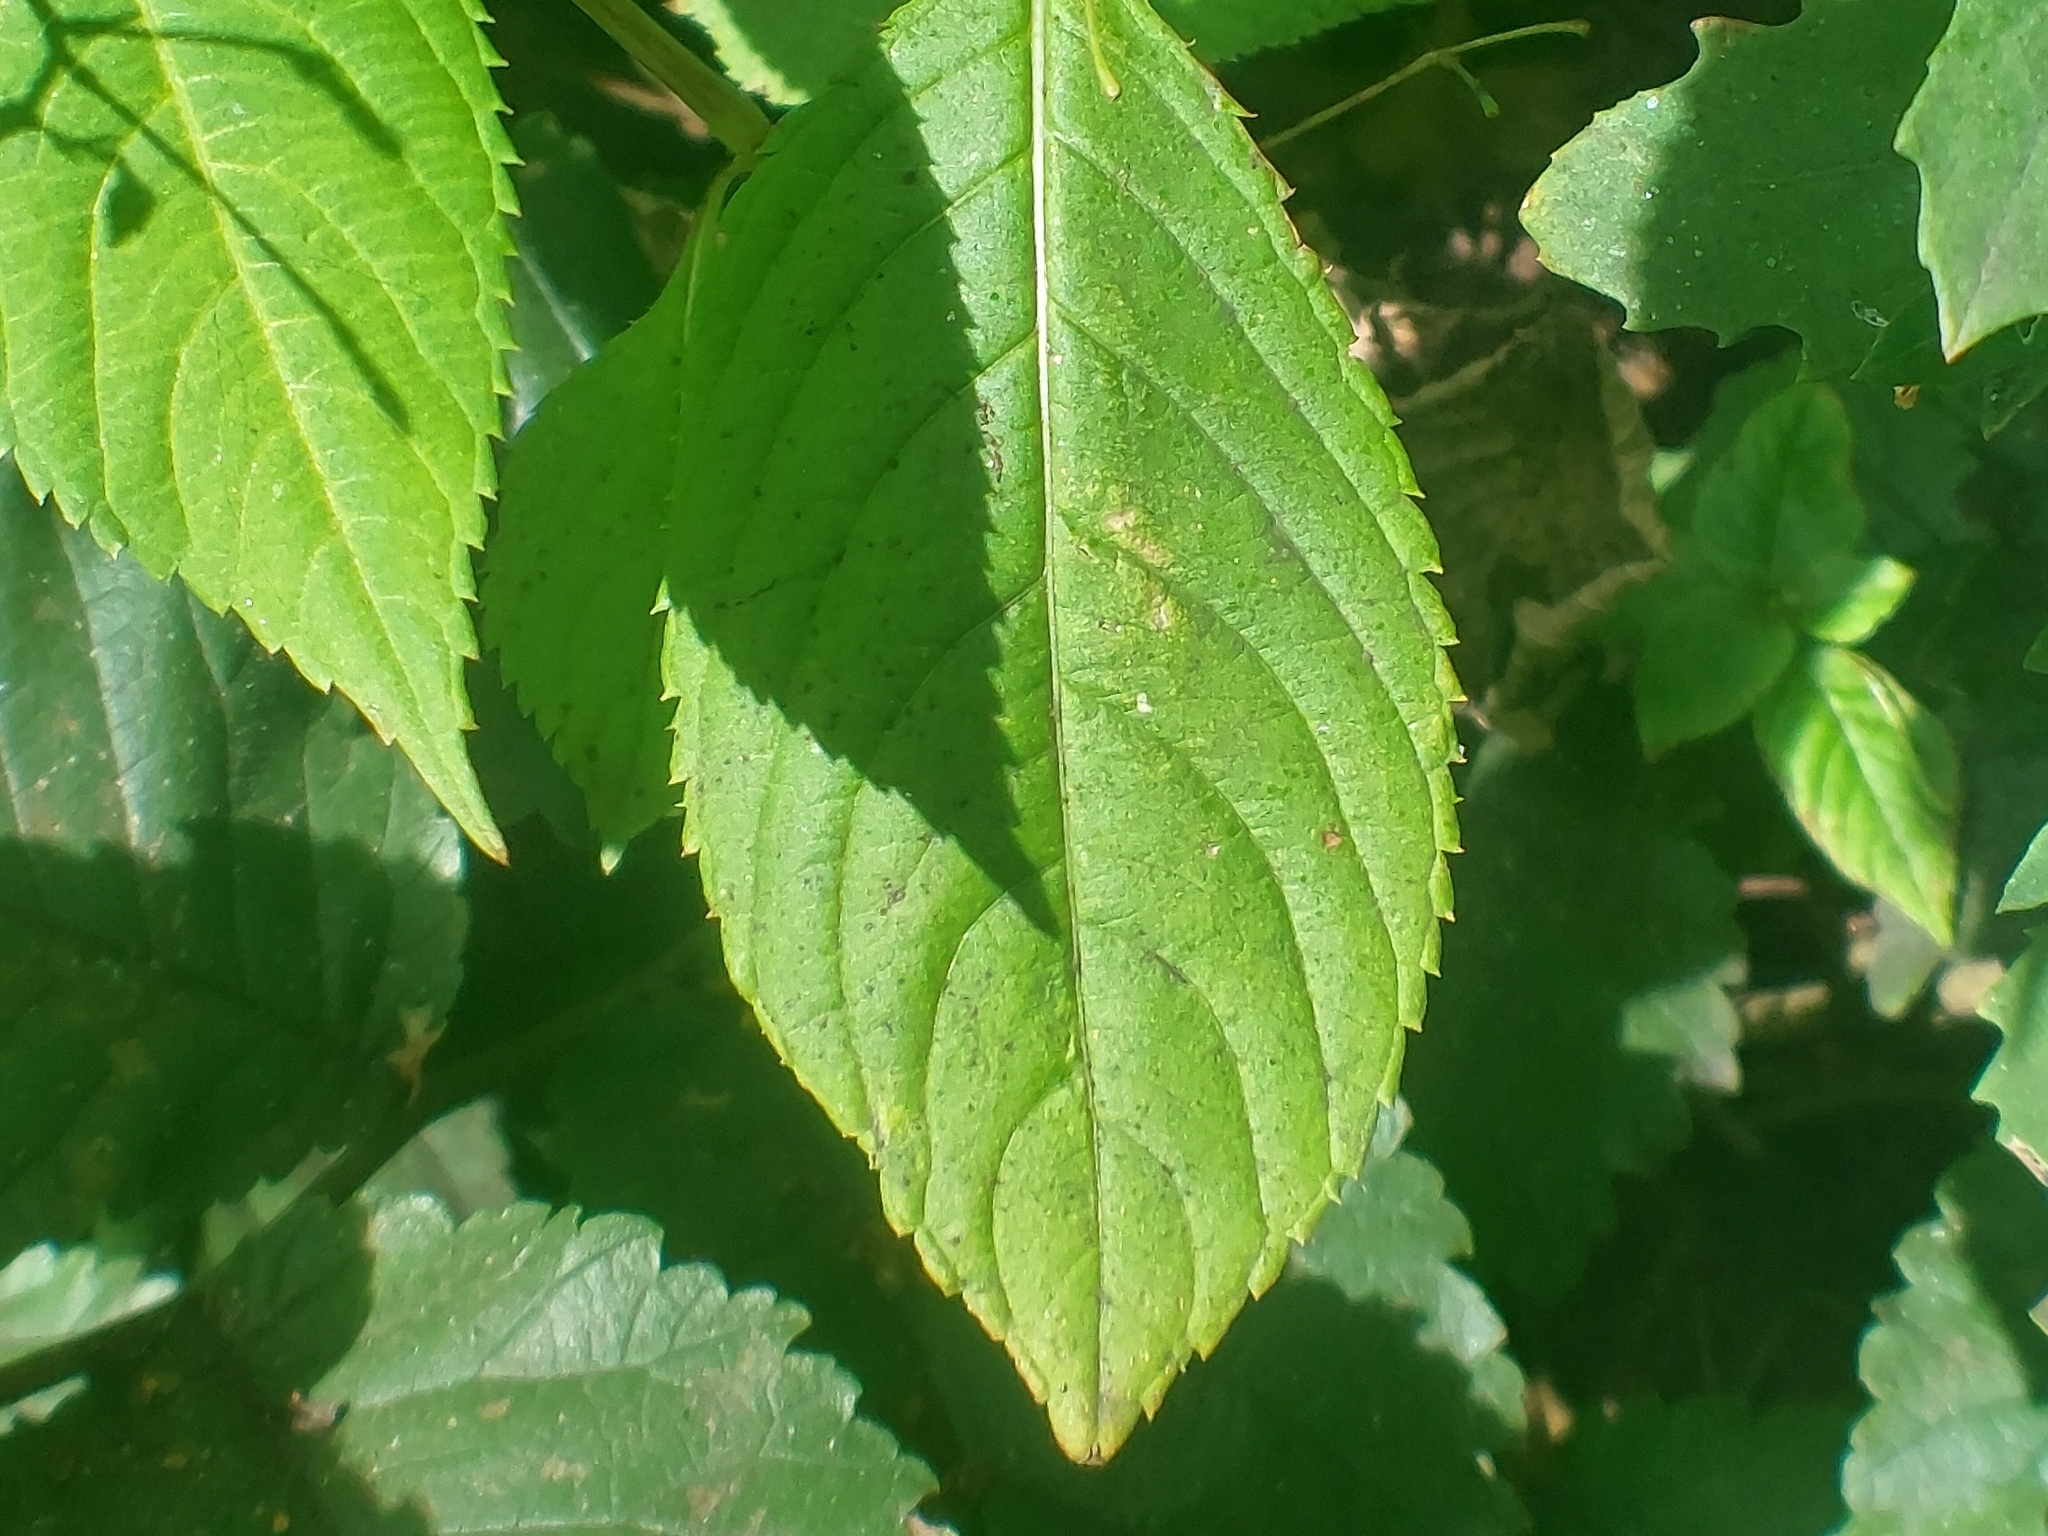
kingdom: Plantae
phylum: Tracheophyta
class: Magnoliopsida
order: Ericales
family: Balsaminaceae
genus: Impatiens
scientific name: Impatiens parviflora
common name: Small balsam
